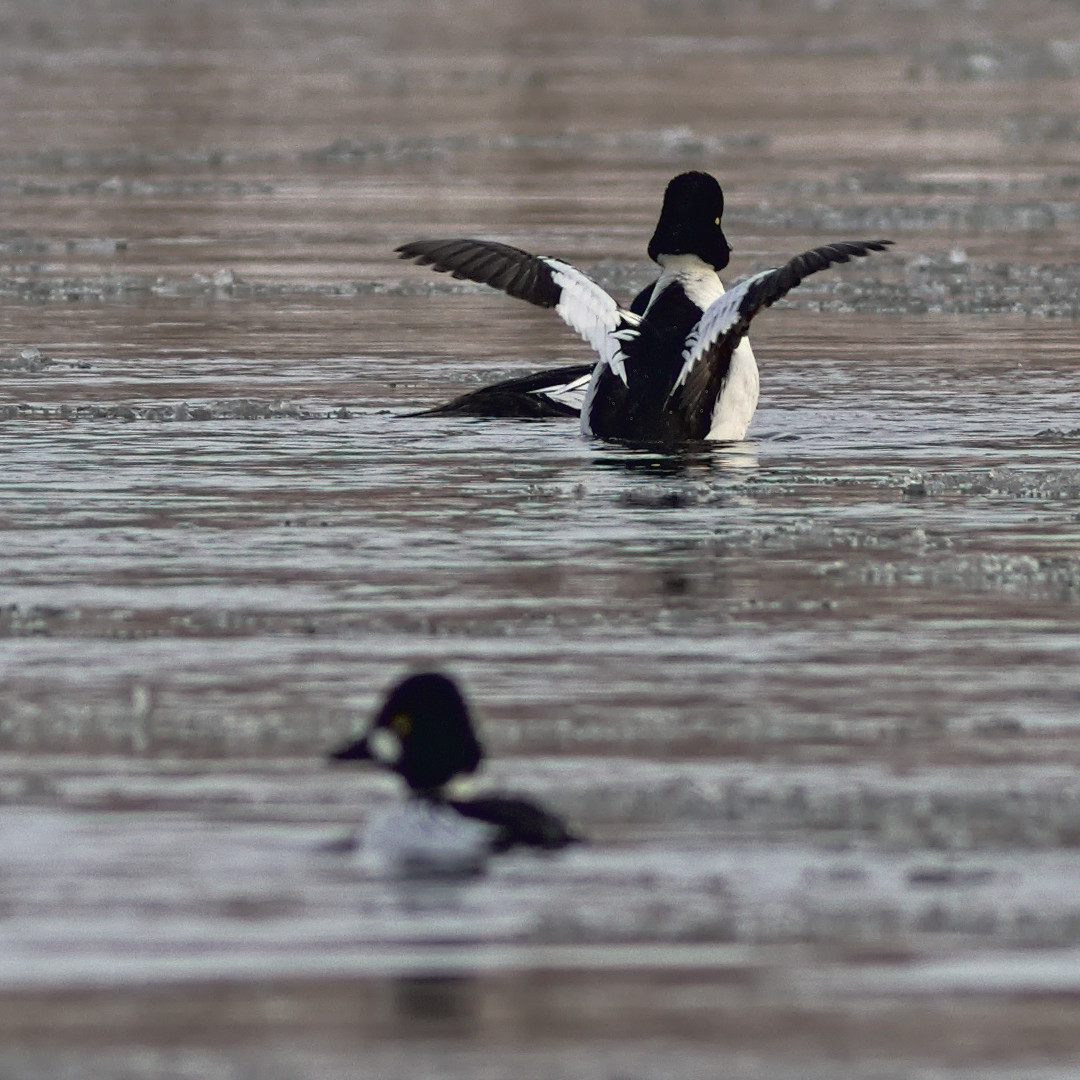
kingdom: Animalia
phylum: Chordata
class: Aves
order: Anseriformes
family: Anatidae
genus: Bucephala
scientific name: Bucephala clangula
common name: Common goldeneye
